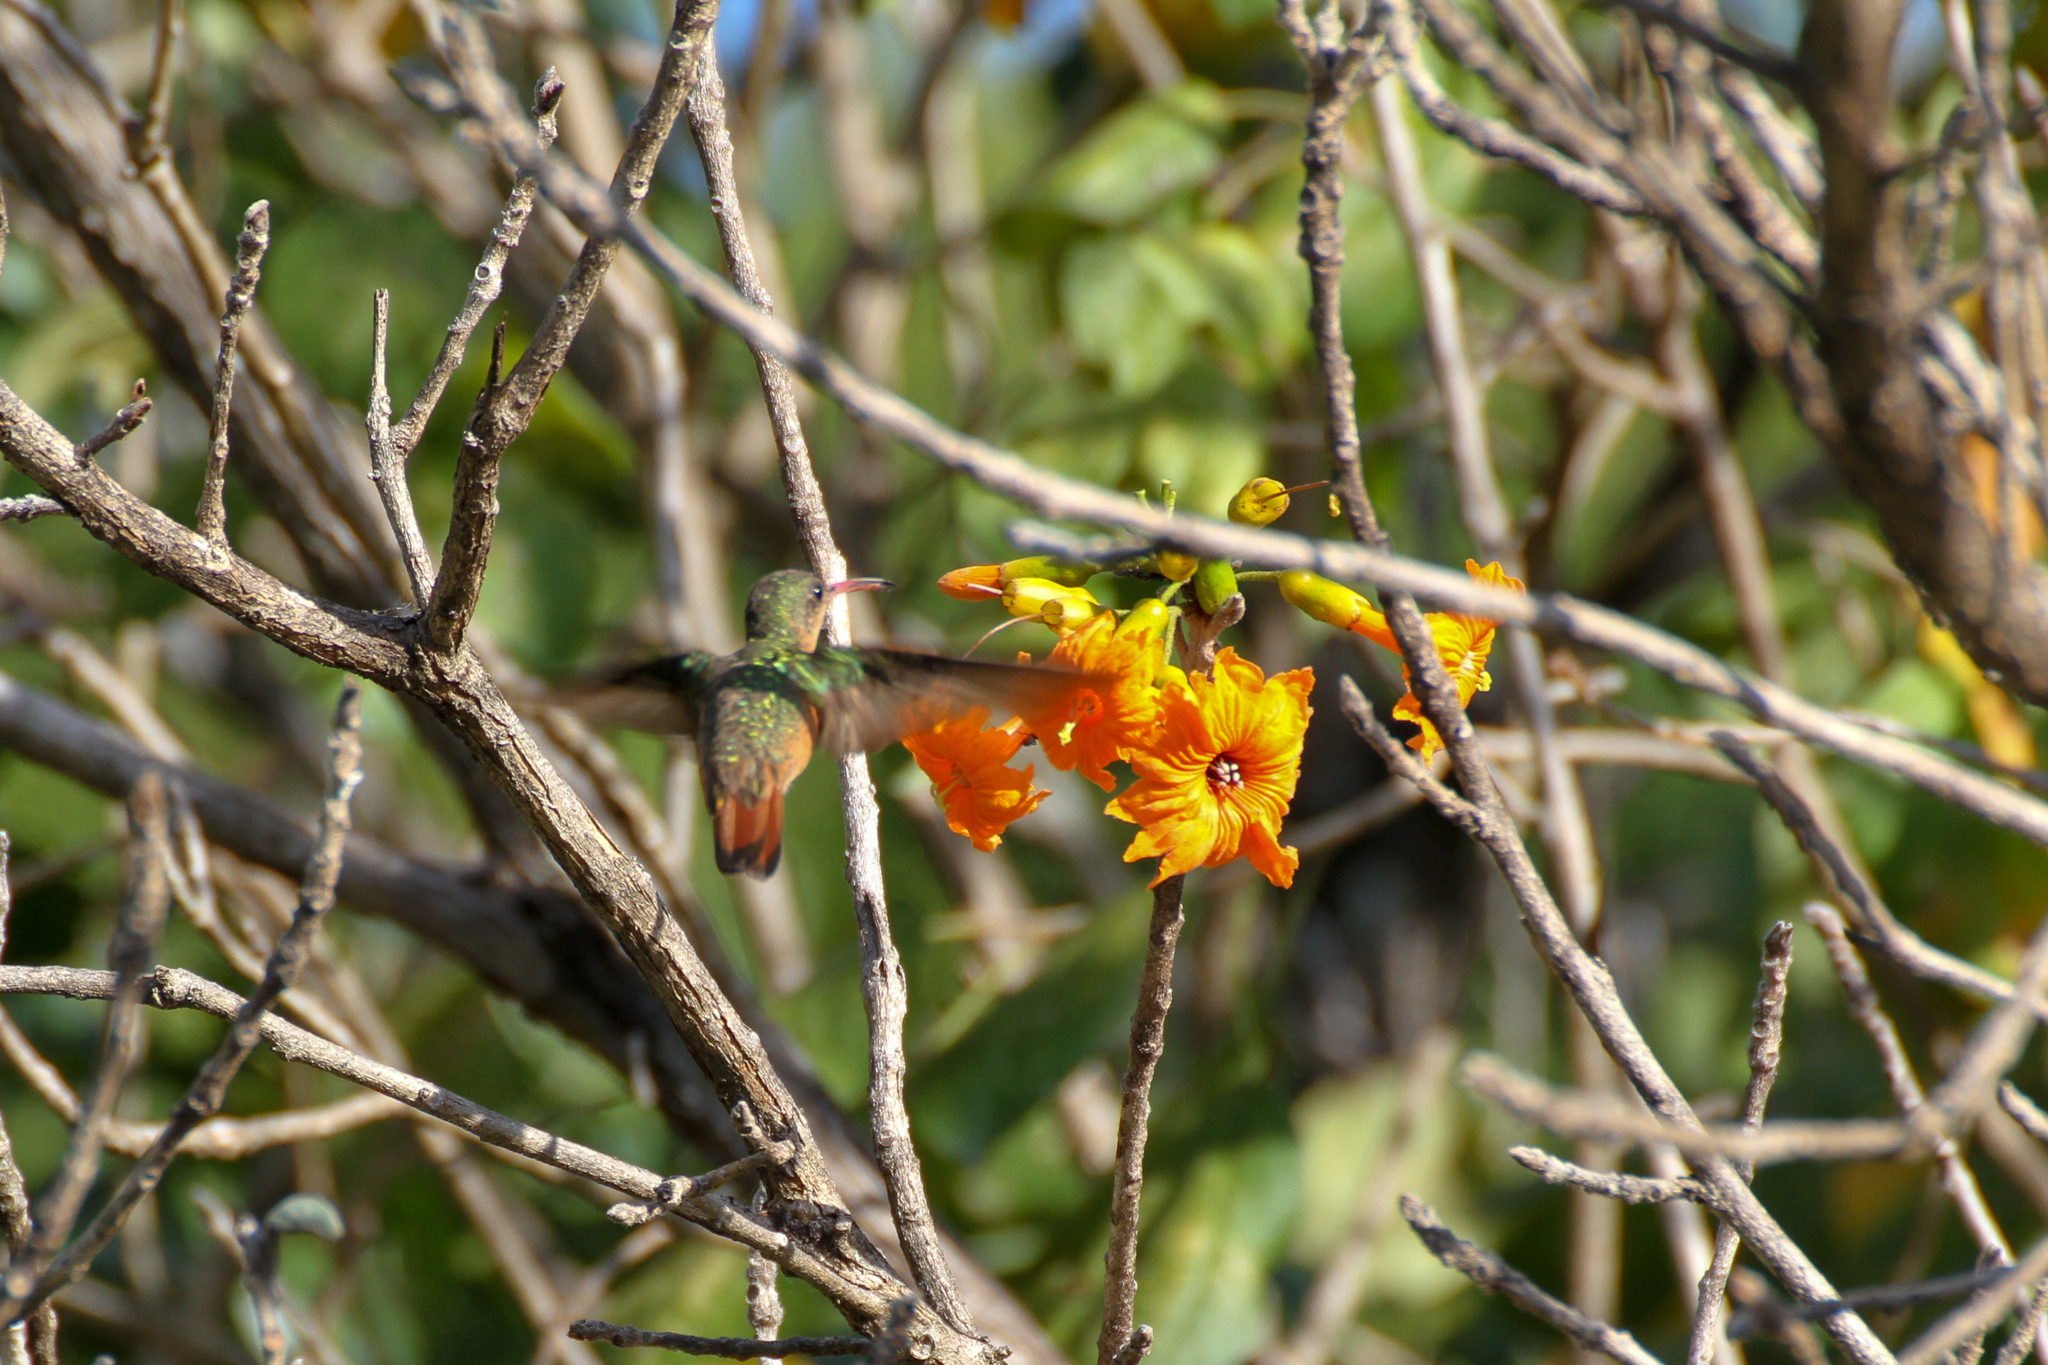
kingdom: Animalia
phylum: Chordata
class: Aves
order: Apodiformes
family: Trochilidae
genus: Amazilia
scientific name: Amazilia rutila
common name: Cinnamon hummingbird
